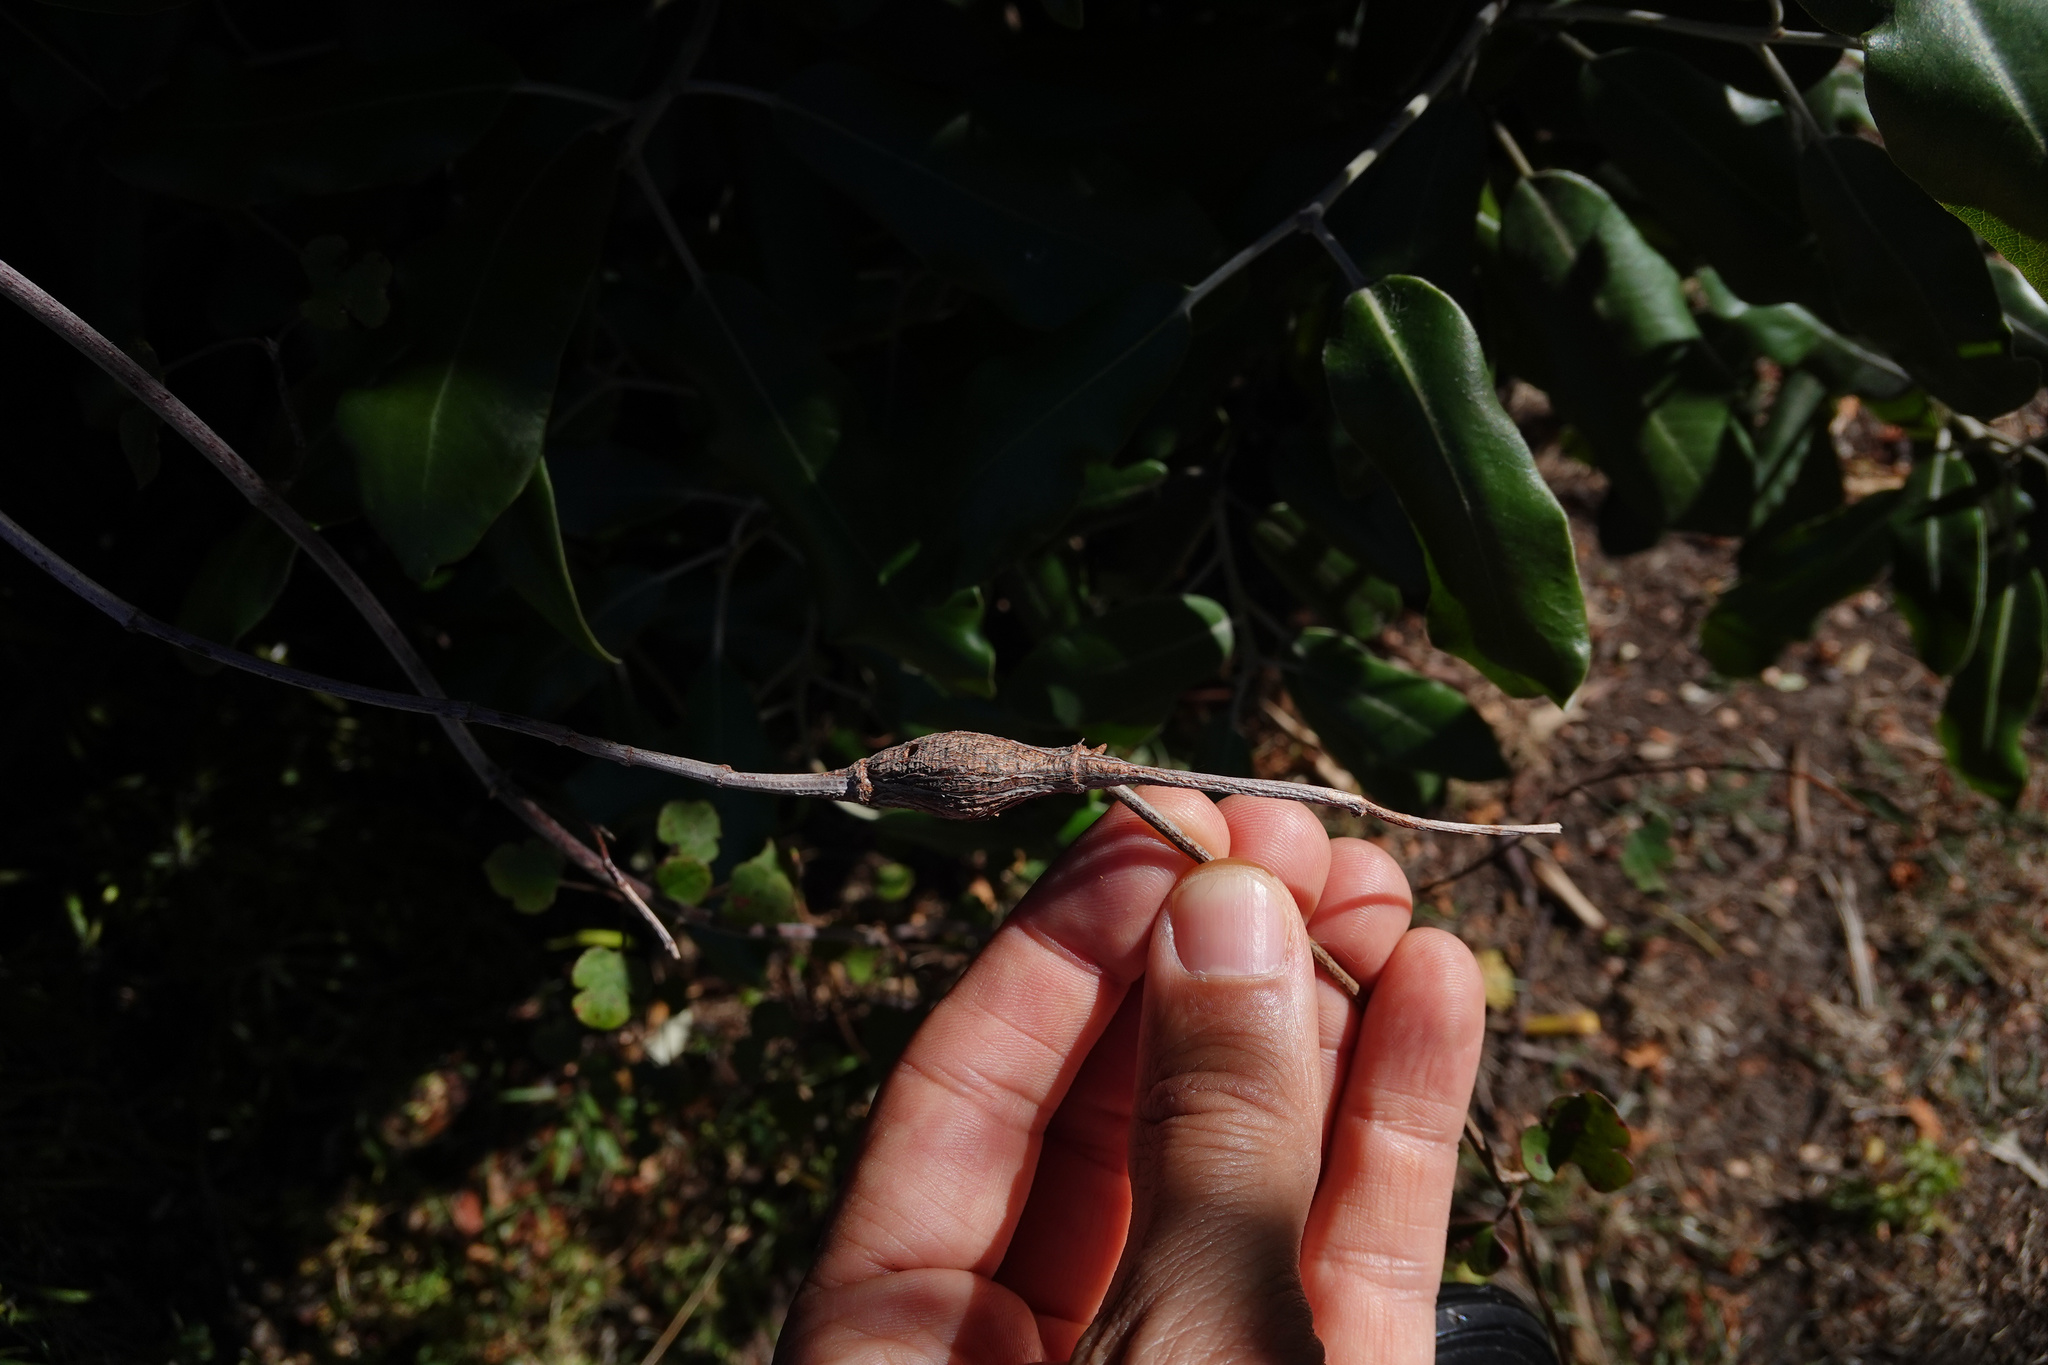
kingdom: Animalia
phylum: Arthropoda
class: Insecta
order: Lepidoptera
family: Thyrididae
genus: Morova
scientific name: Morova subfasciata
